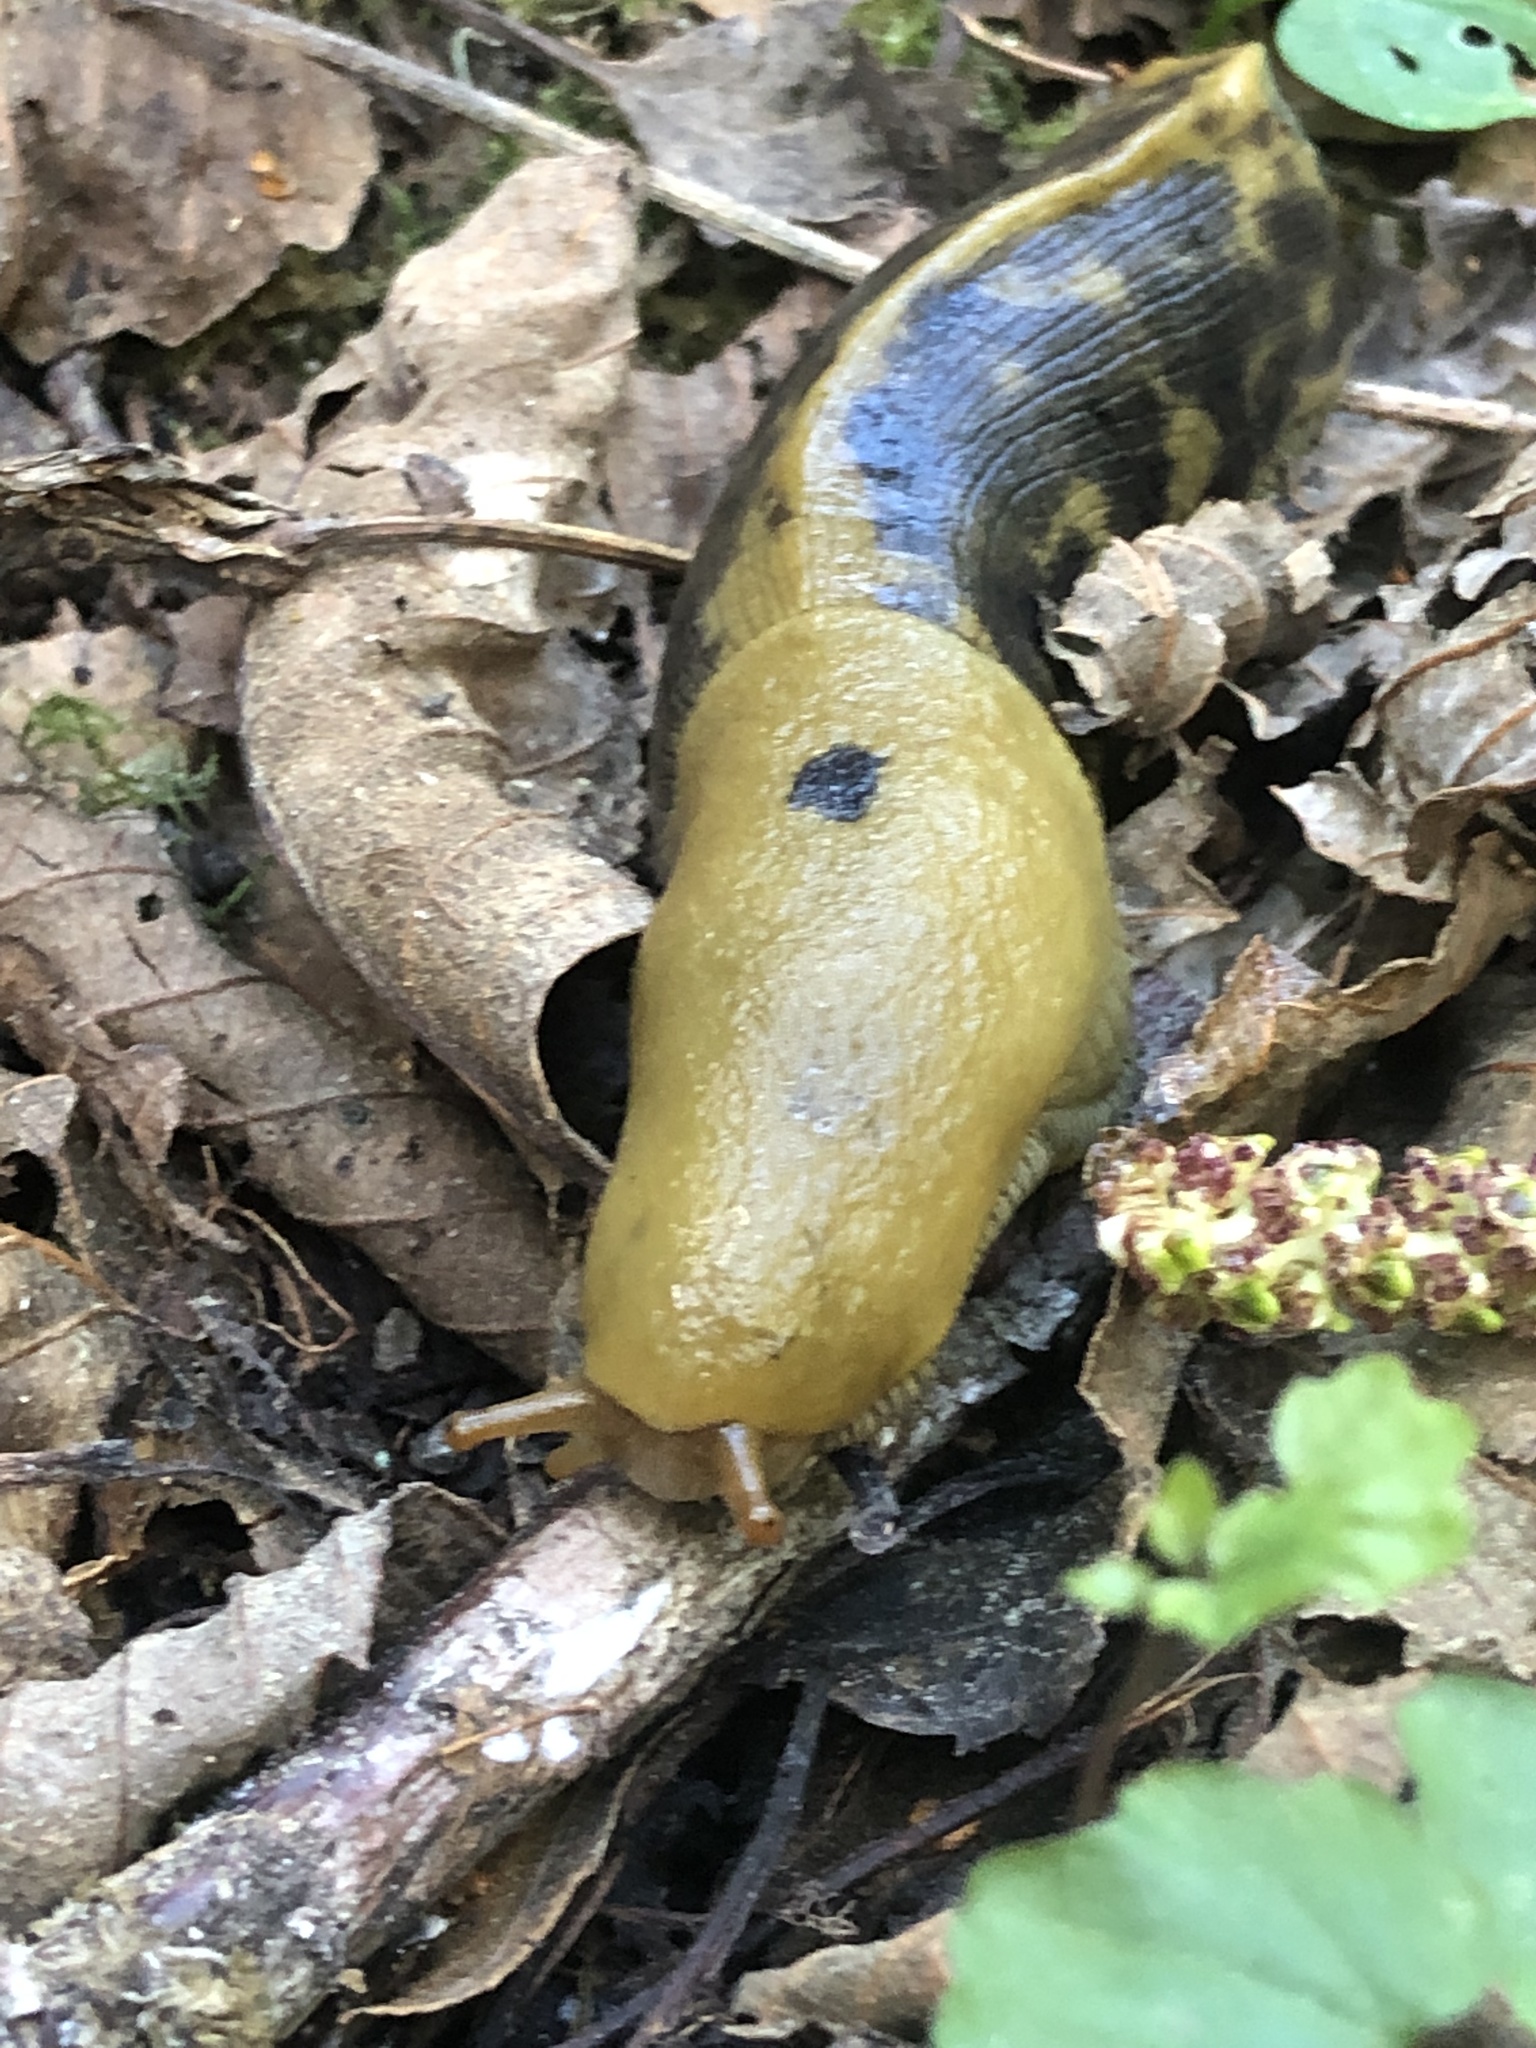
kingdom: Animalia
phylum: Mollusca
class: Gastropoda
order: Stylommatophora
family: Ariolimacidae
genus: Ariolimax
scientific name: Ariolimax buttoni
